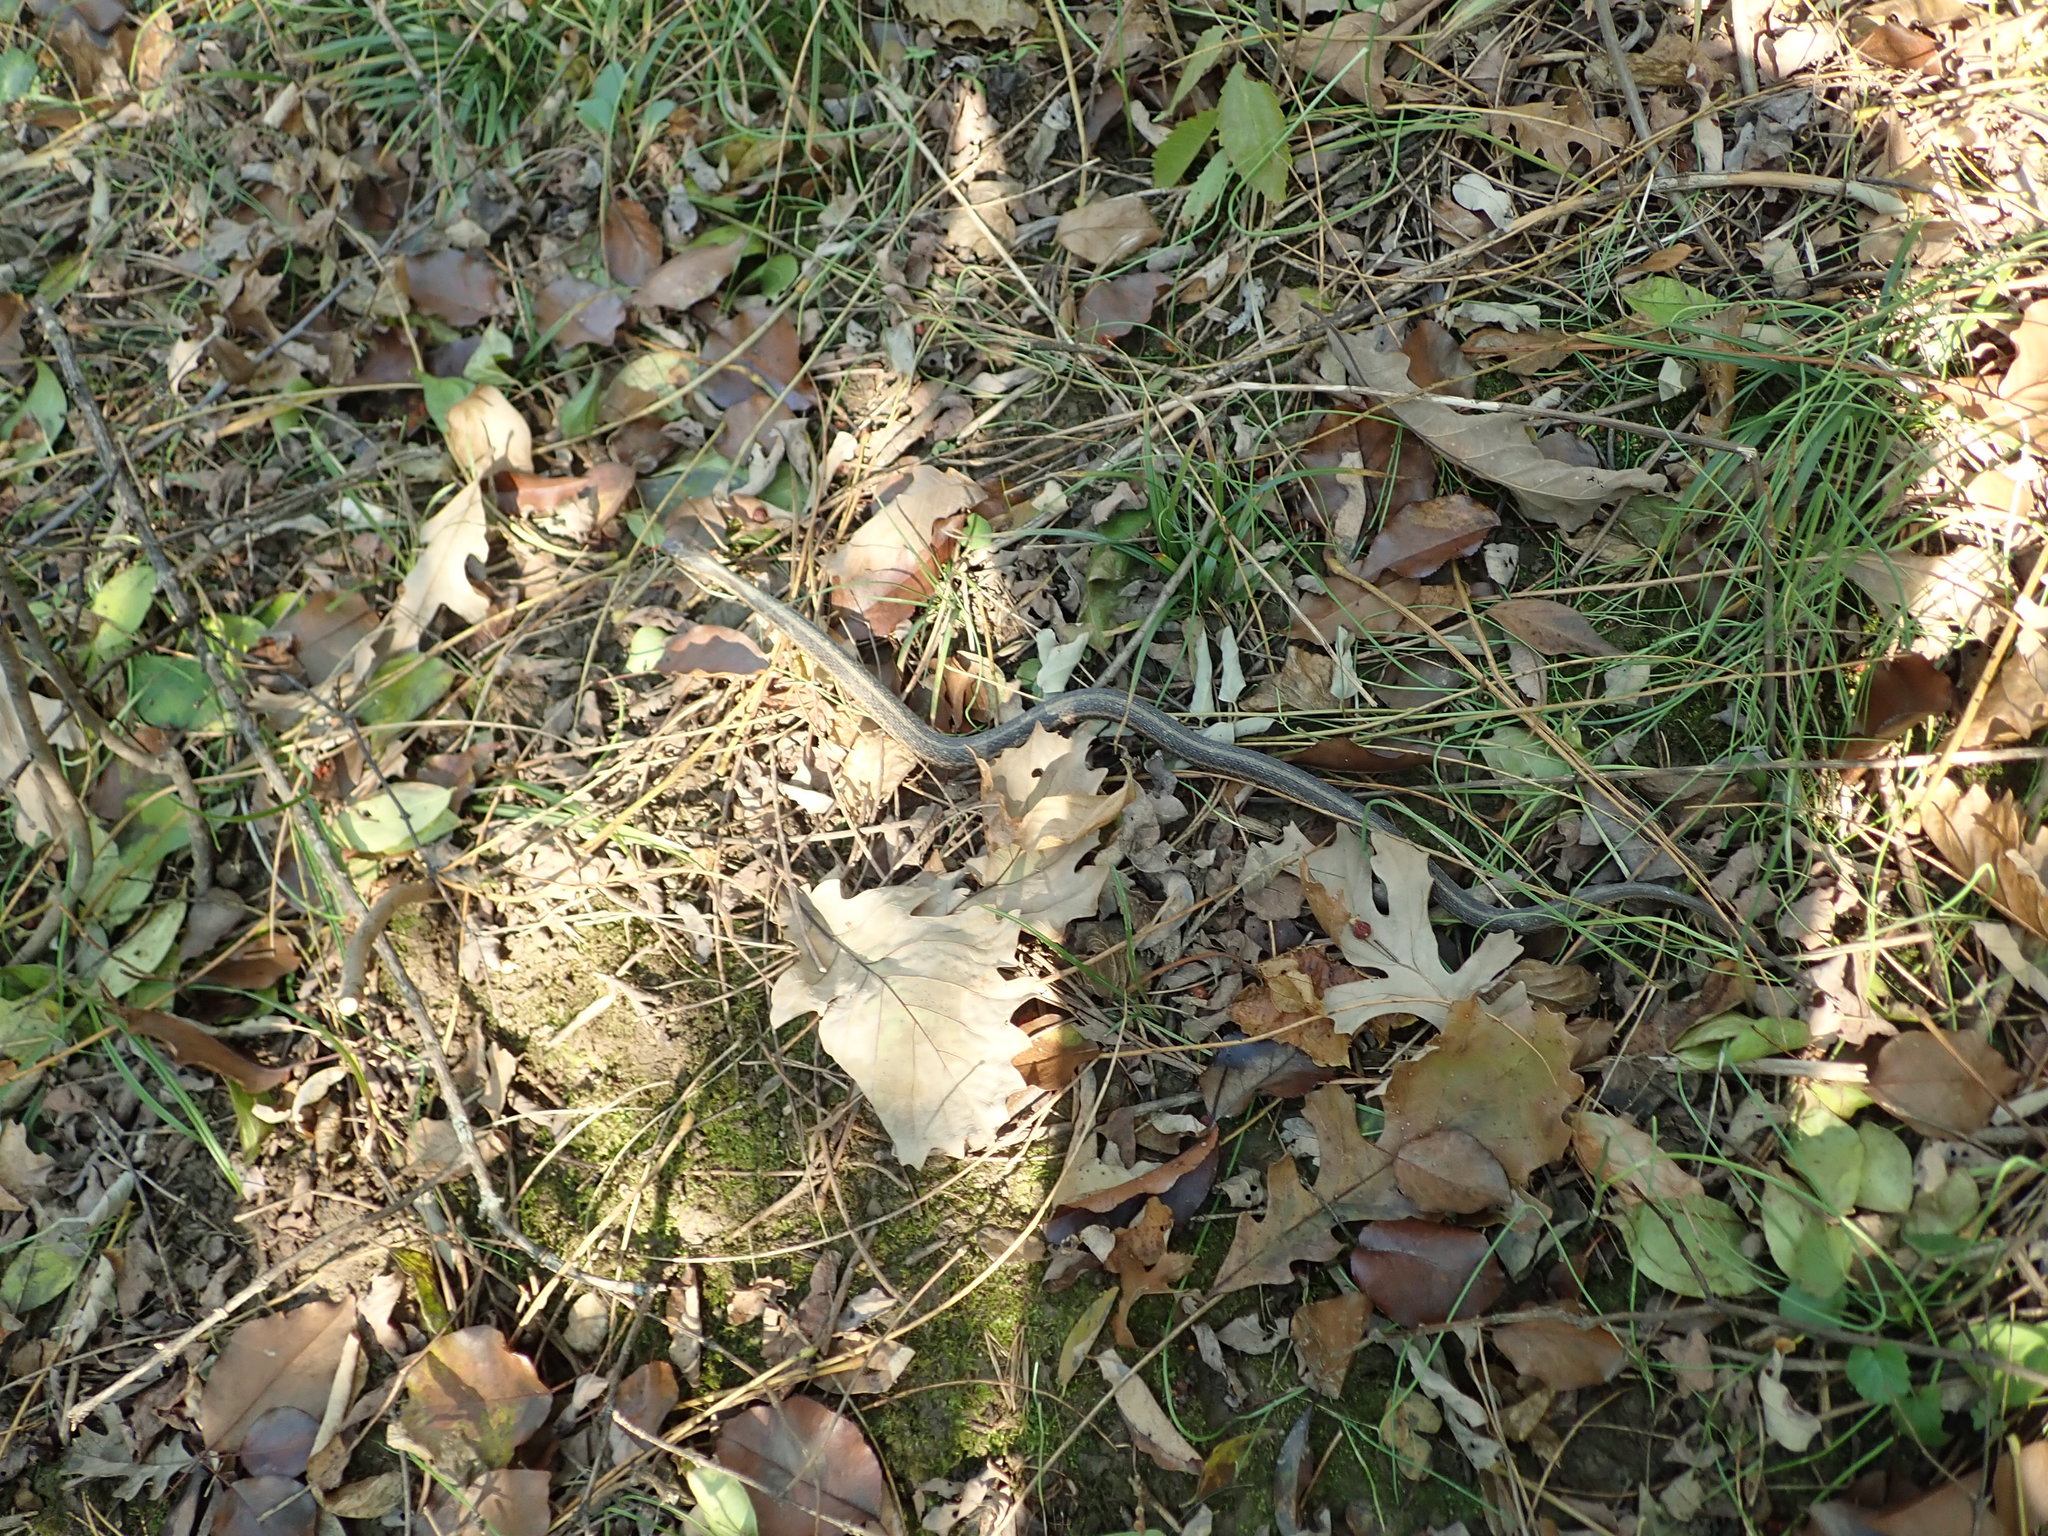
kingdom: Animalia
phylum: Chordata
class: Squamata
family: Colubridae
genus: Thamnophis
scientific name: Thamnophis sirtalis
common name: Common garter snake
